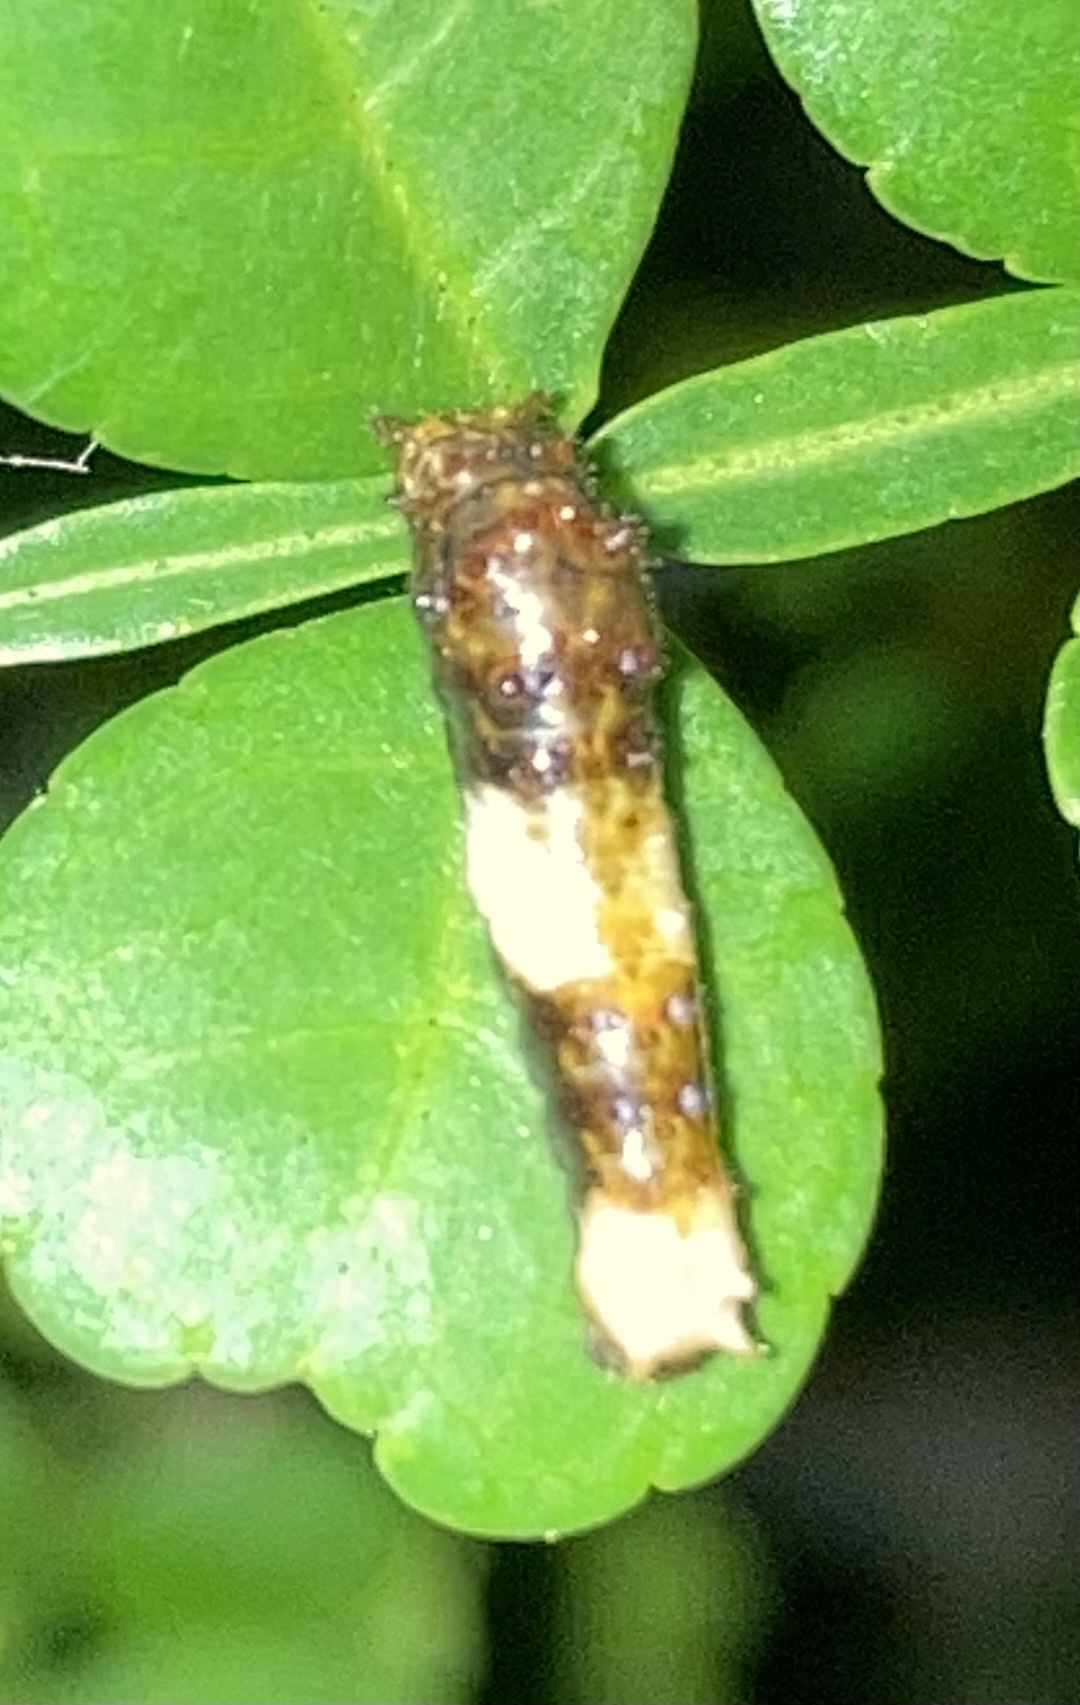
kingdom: Animalia
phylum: Arthropoda
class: Insecta
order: Lepidoptera
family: Papilionidae
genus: Papilio
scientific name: Papilio cresphontes
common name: Giant swallowtail
